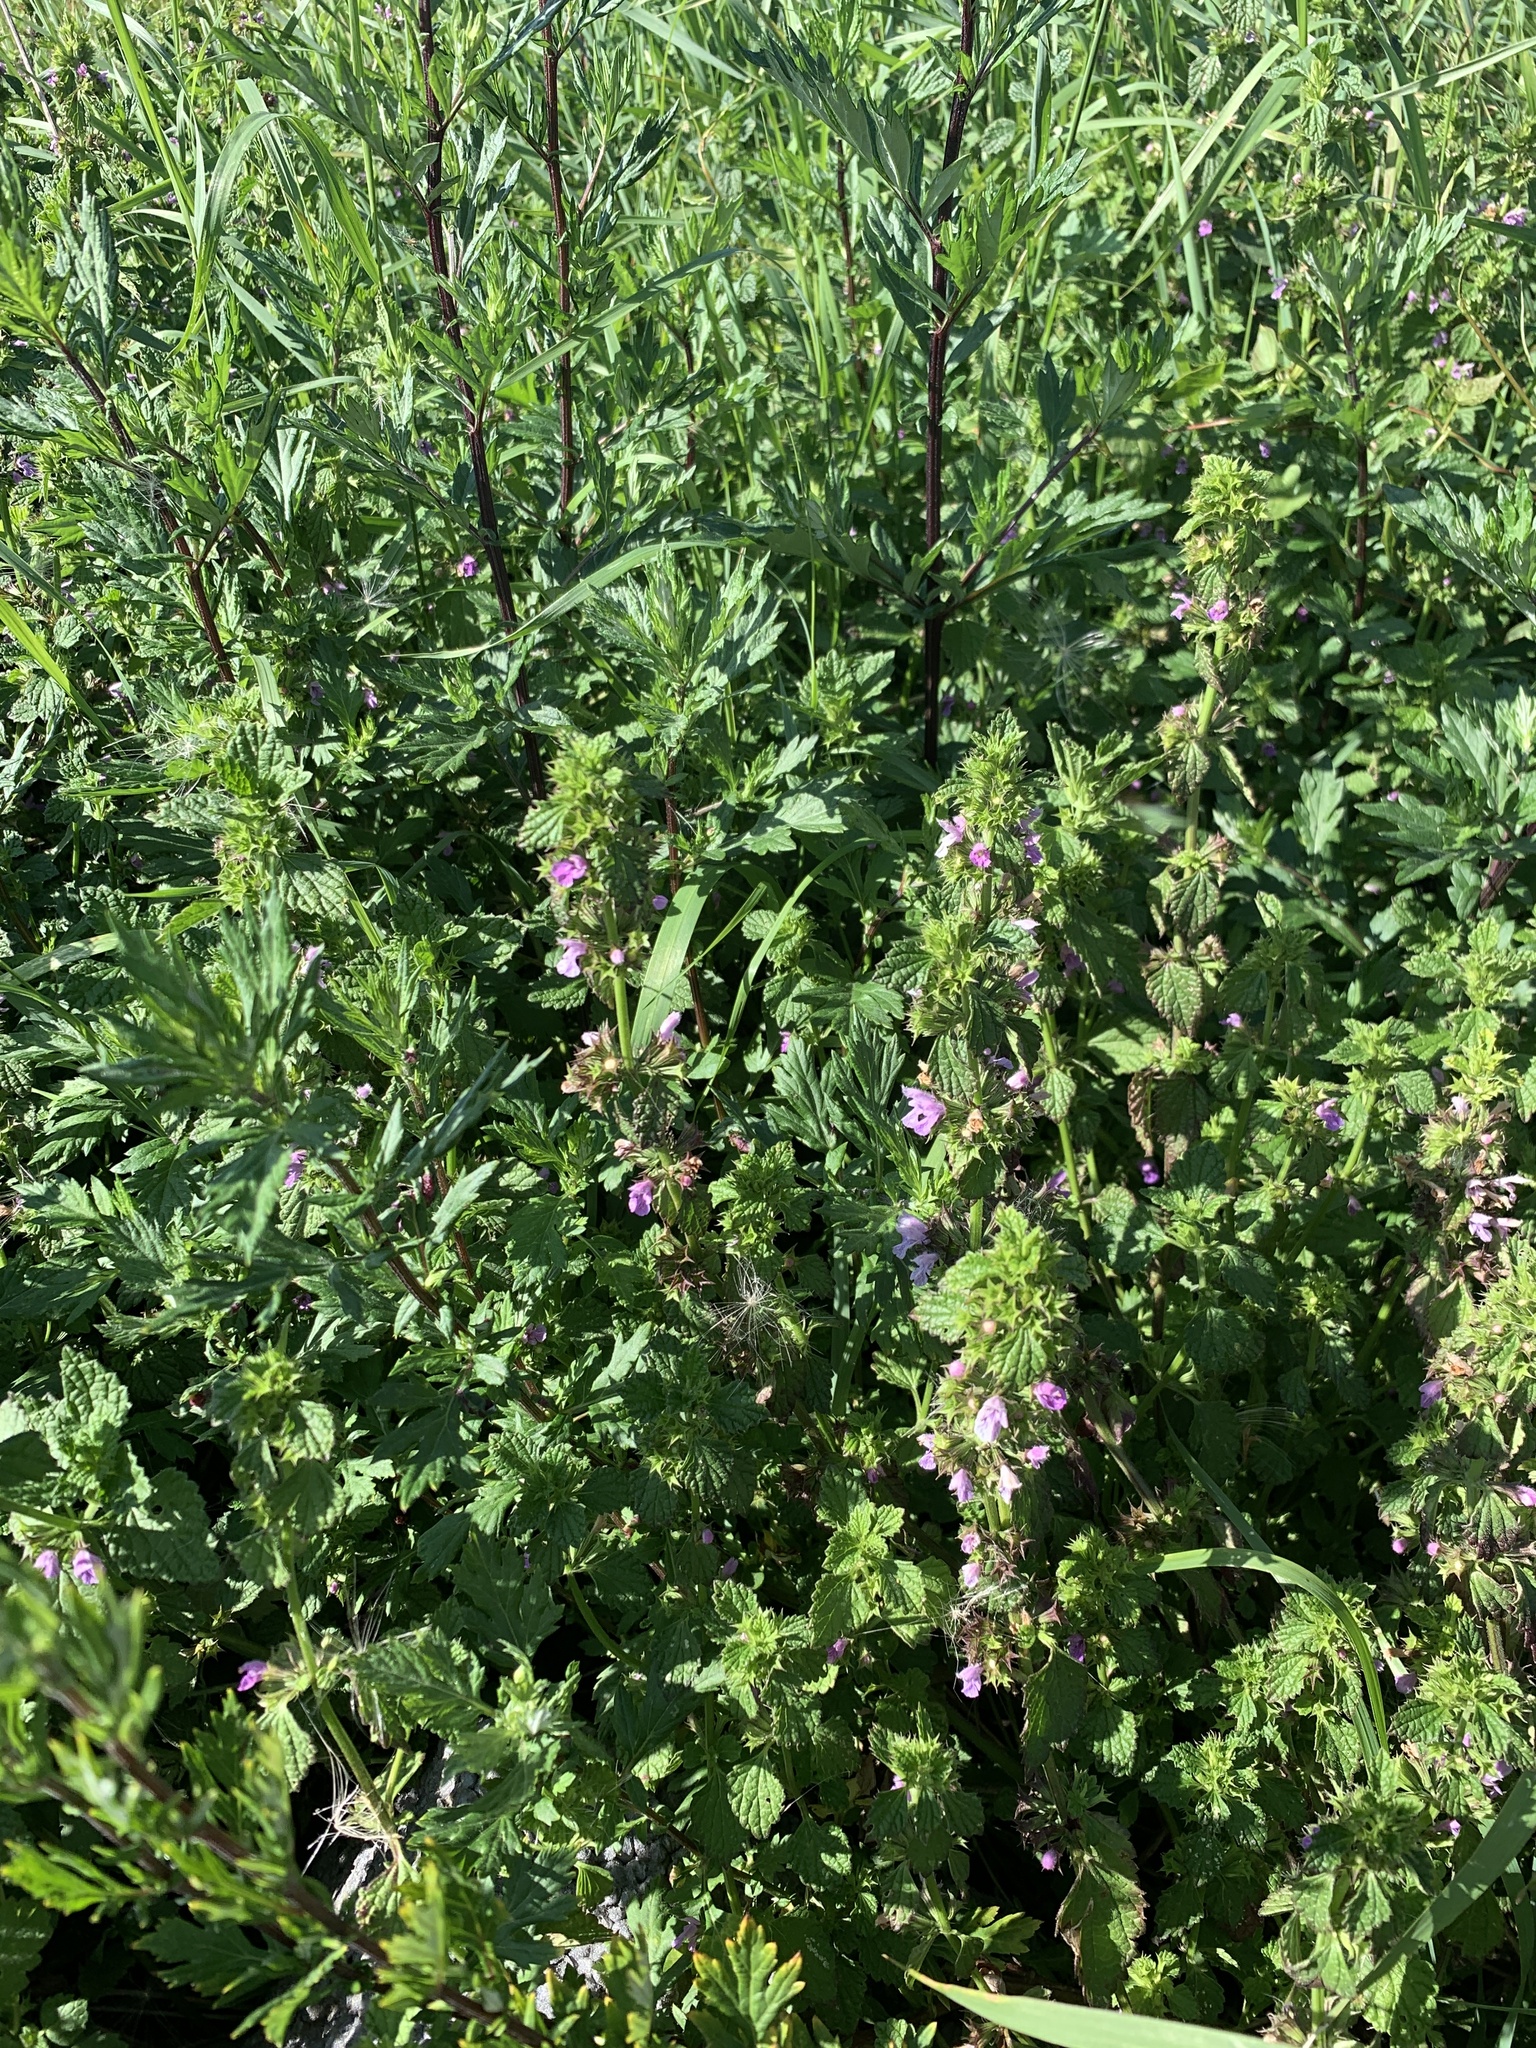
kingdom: Plantae
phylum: Tracheophyta
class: Magnoliopsida
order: Lamiales
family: Lamiaceae
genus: Ballota
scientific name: Ballota nigra
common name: Black horehound
